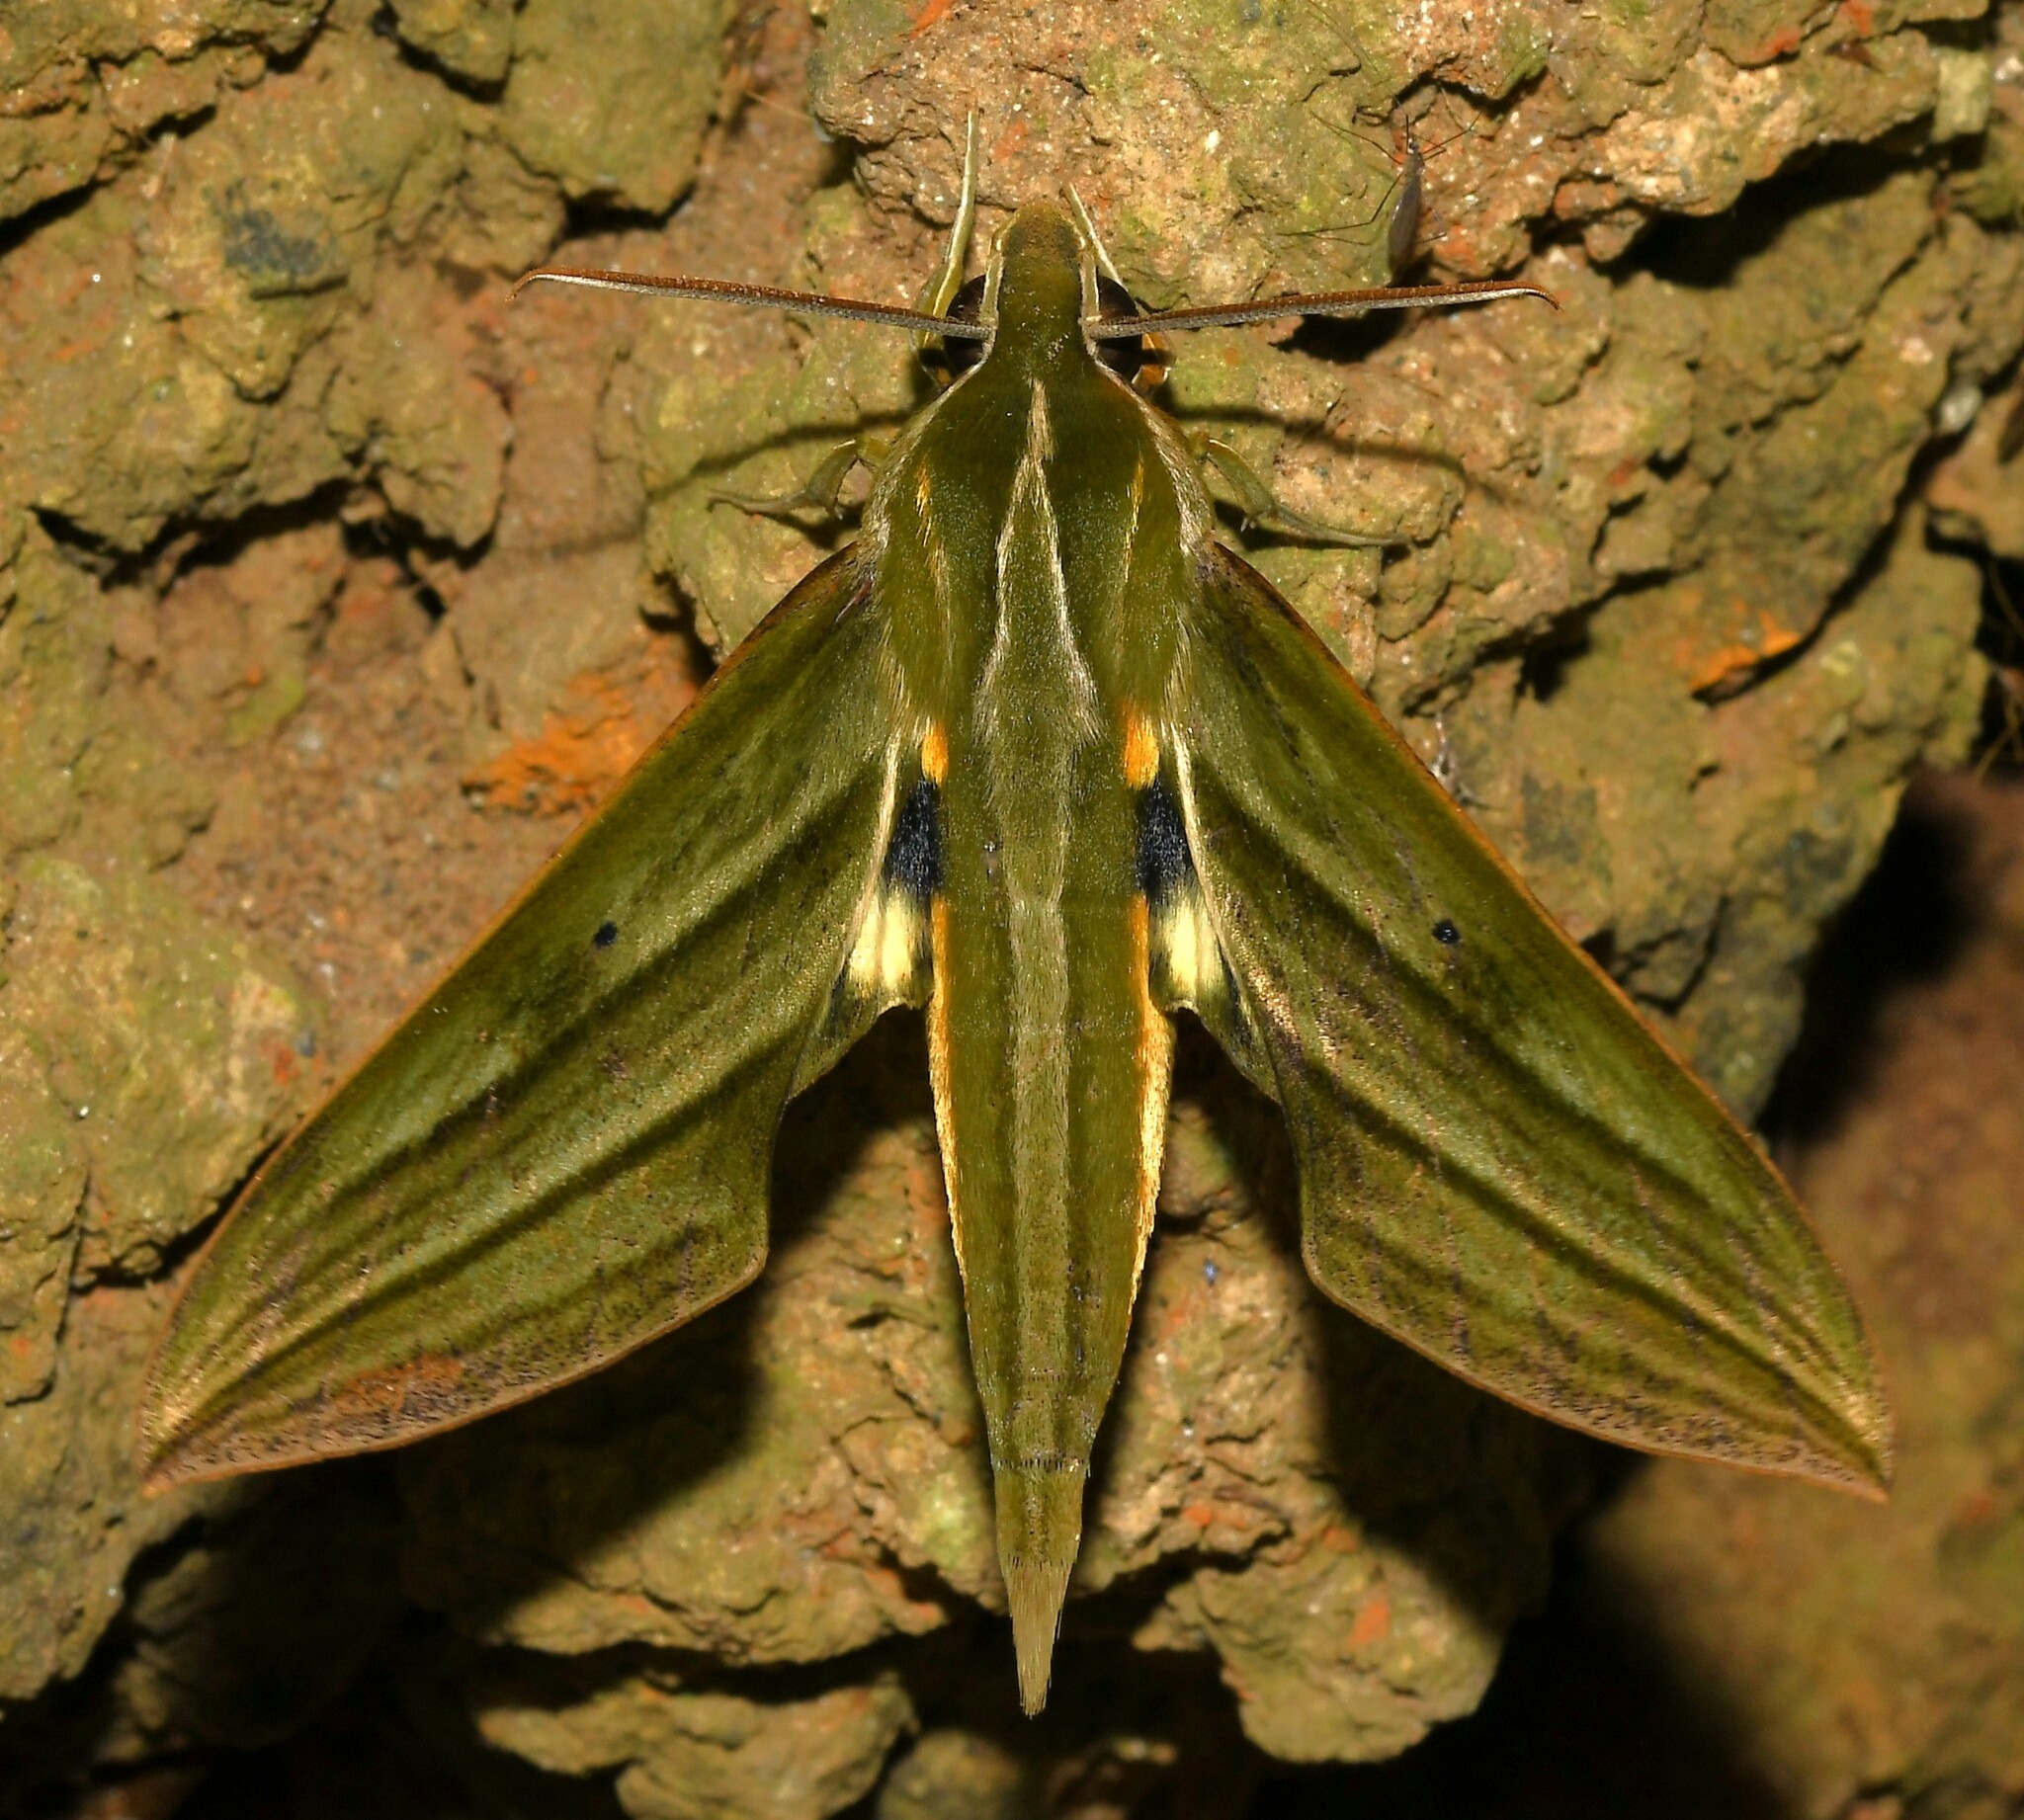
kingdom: Animalia
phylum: Arthropoda
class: Insecta
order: Lepidoptera
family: Sphingidae
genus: Xylophanes
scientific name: Xylophanes aristor
